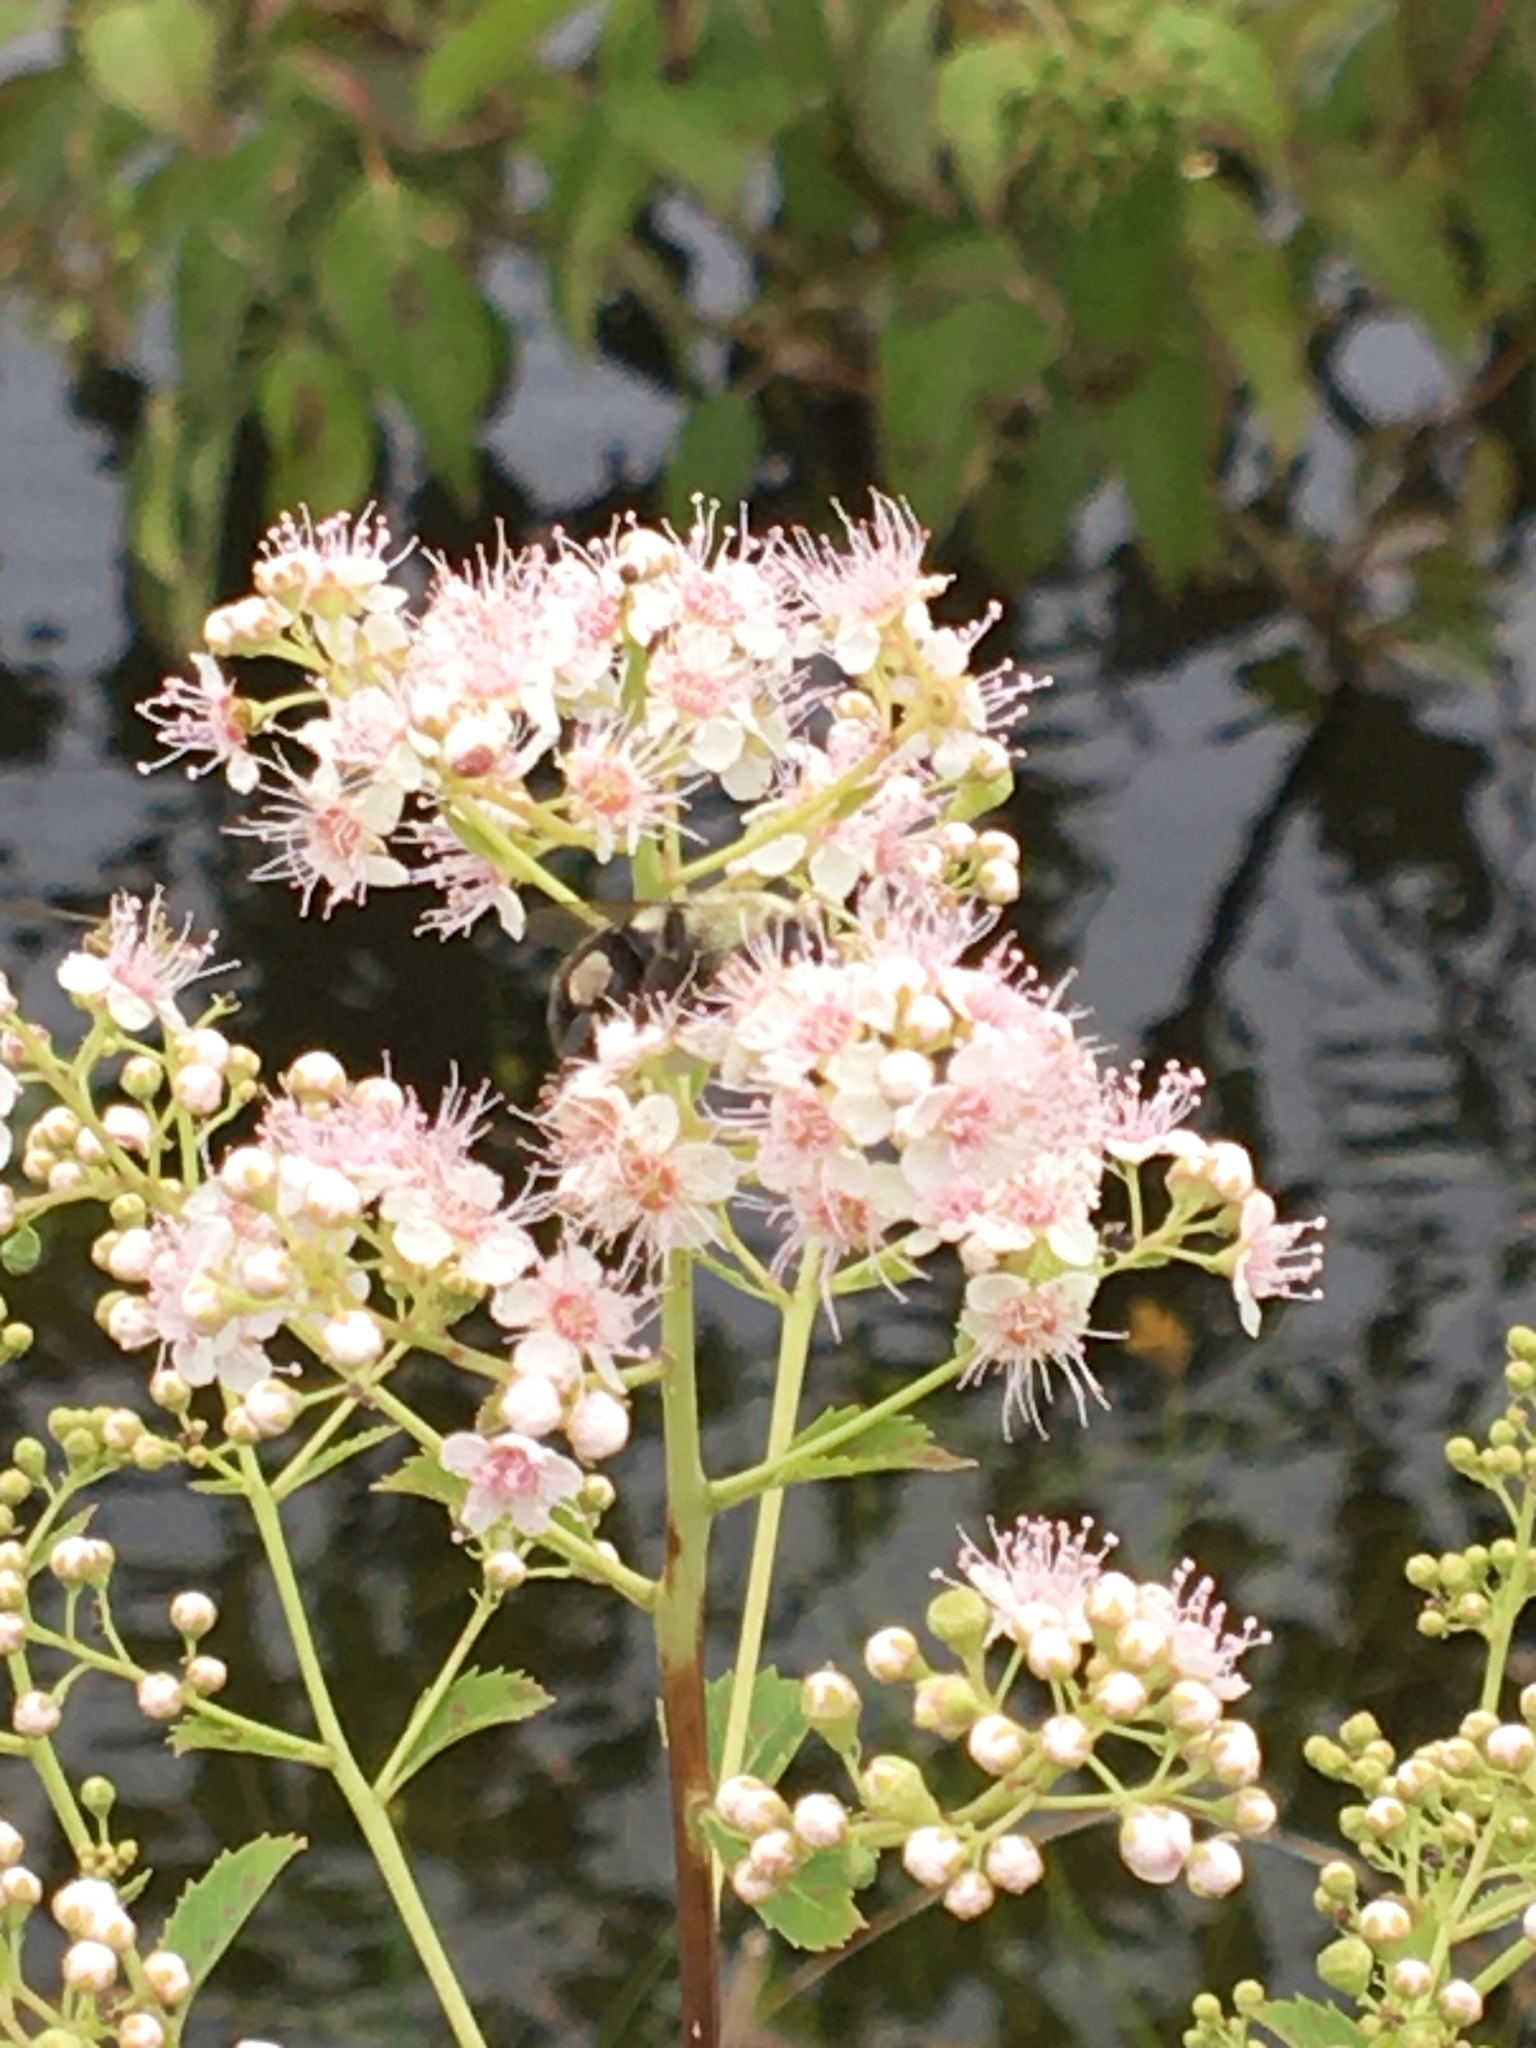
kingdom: Plantae
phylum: Tracheophyta
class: Magnoliopsida
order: Rosales
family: Rosaceae
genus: Spiraea
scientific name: Spiraea alba
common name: Pale bridewort
